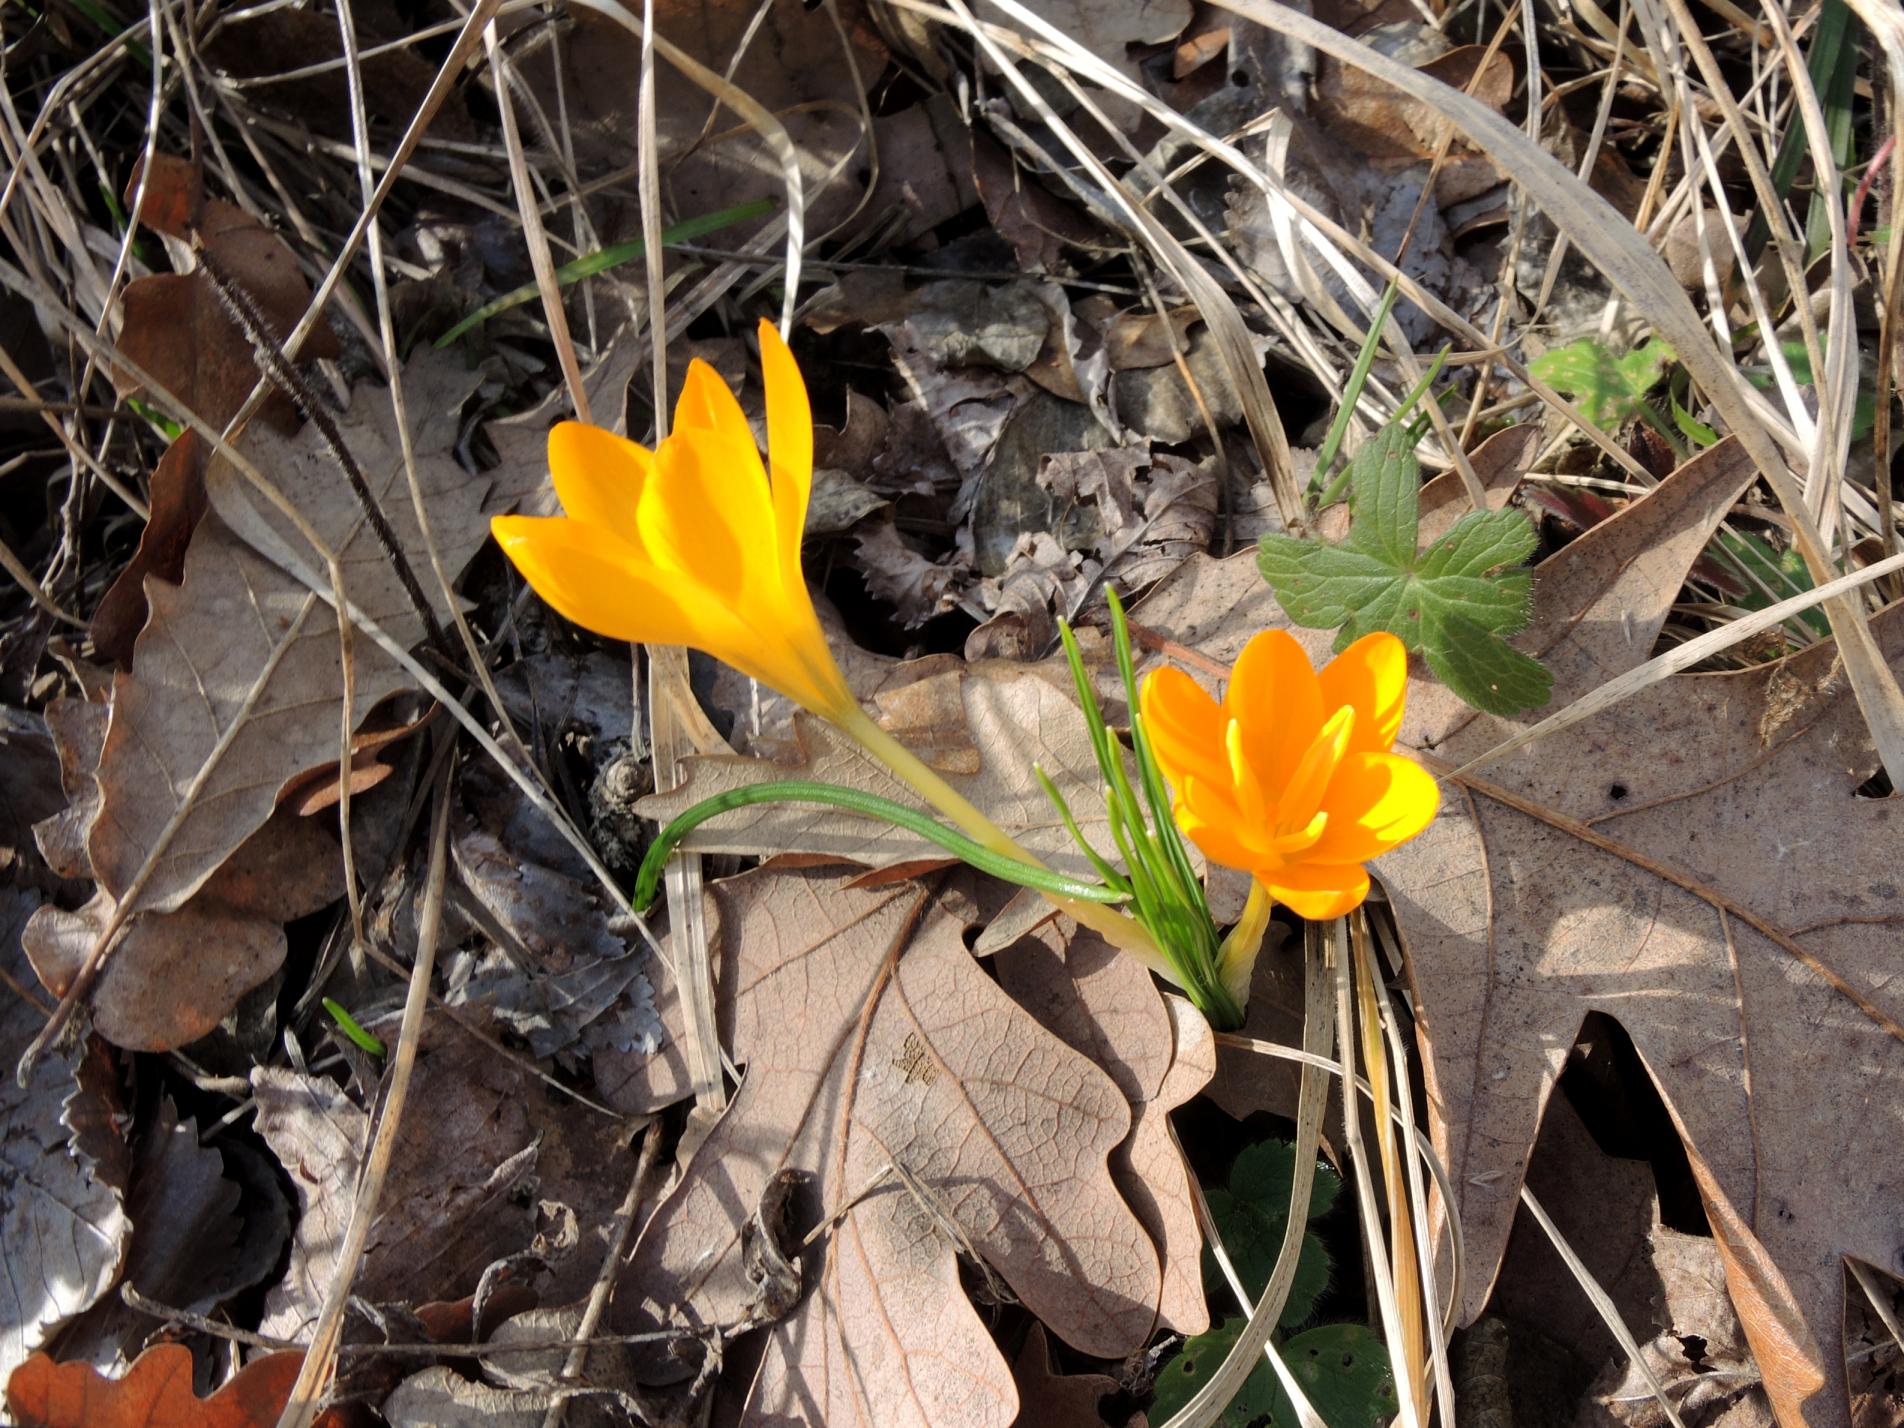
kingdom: Plantae
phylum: Tracheophyta
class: Liliopsida
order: Asparagales
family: Iridaceae
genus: Crocus
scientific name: Crocus flavus
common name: Yellow crocus
